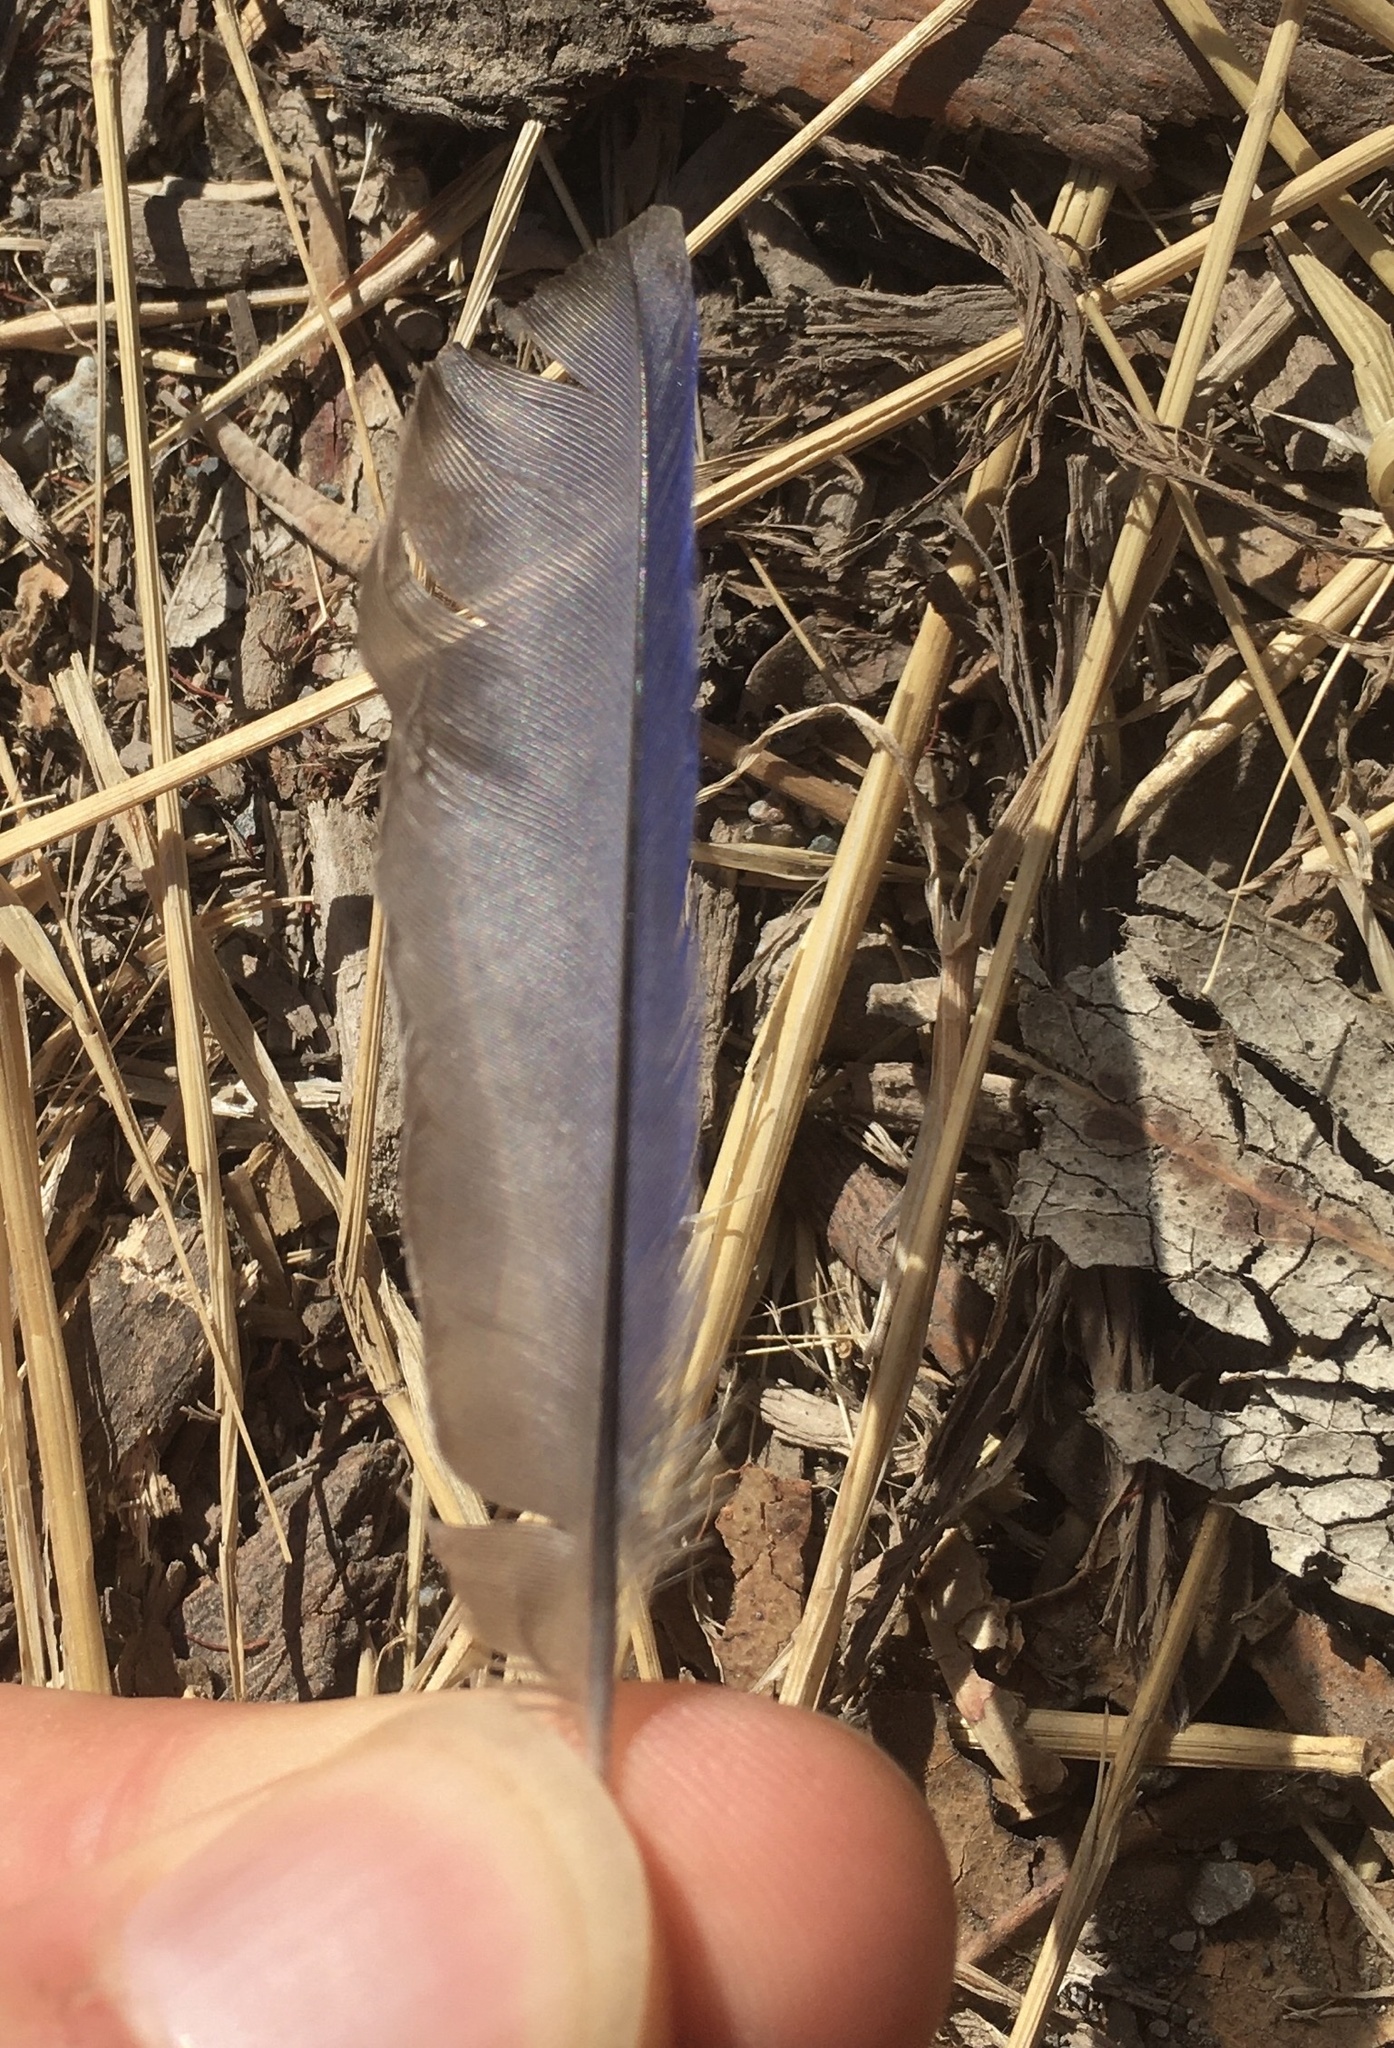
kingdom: Animalia
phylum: Chordata
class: Aves
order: Passeriformes
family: Turdidae
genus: Sialia
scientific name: Sialia mexicana
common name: Western bluebird
